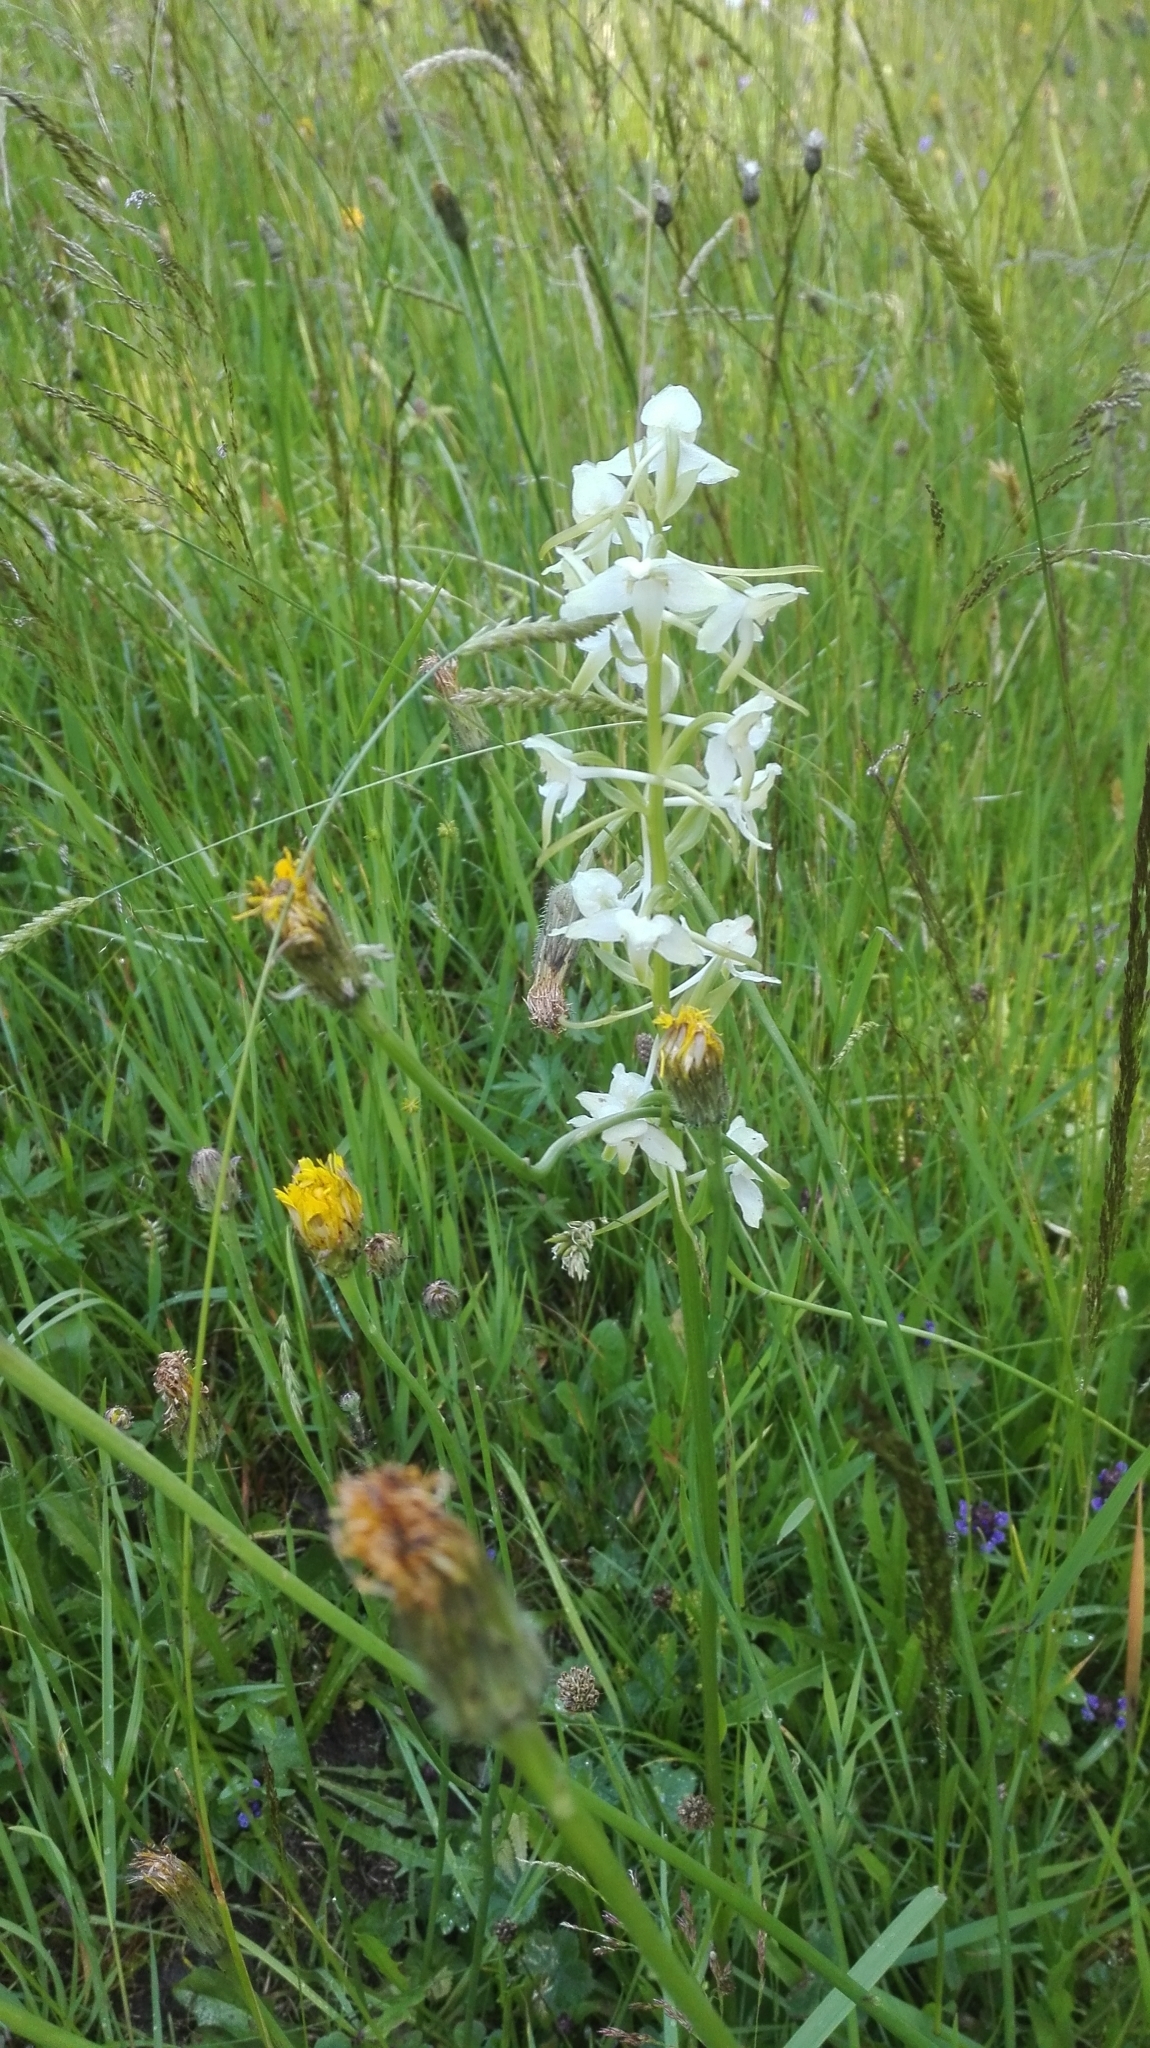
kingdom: Plantae
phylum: Tracheophyta
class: Liliopsida
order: Asparagales
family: Orchidaceae
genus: Platanthera
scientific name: Platanthera chlorantha
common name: Greater butterfly-orchid
